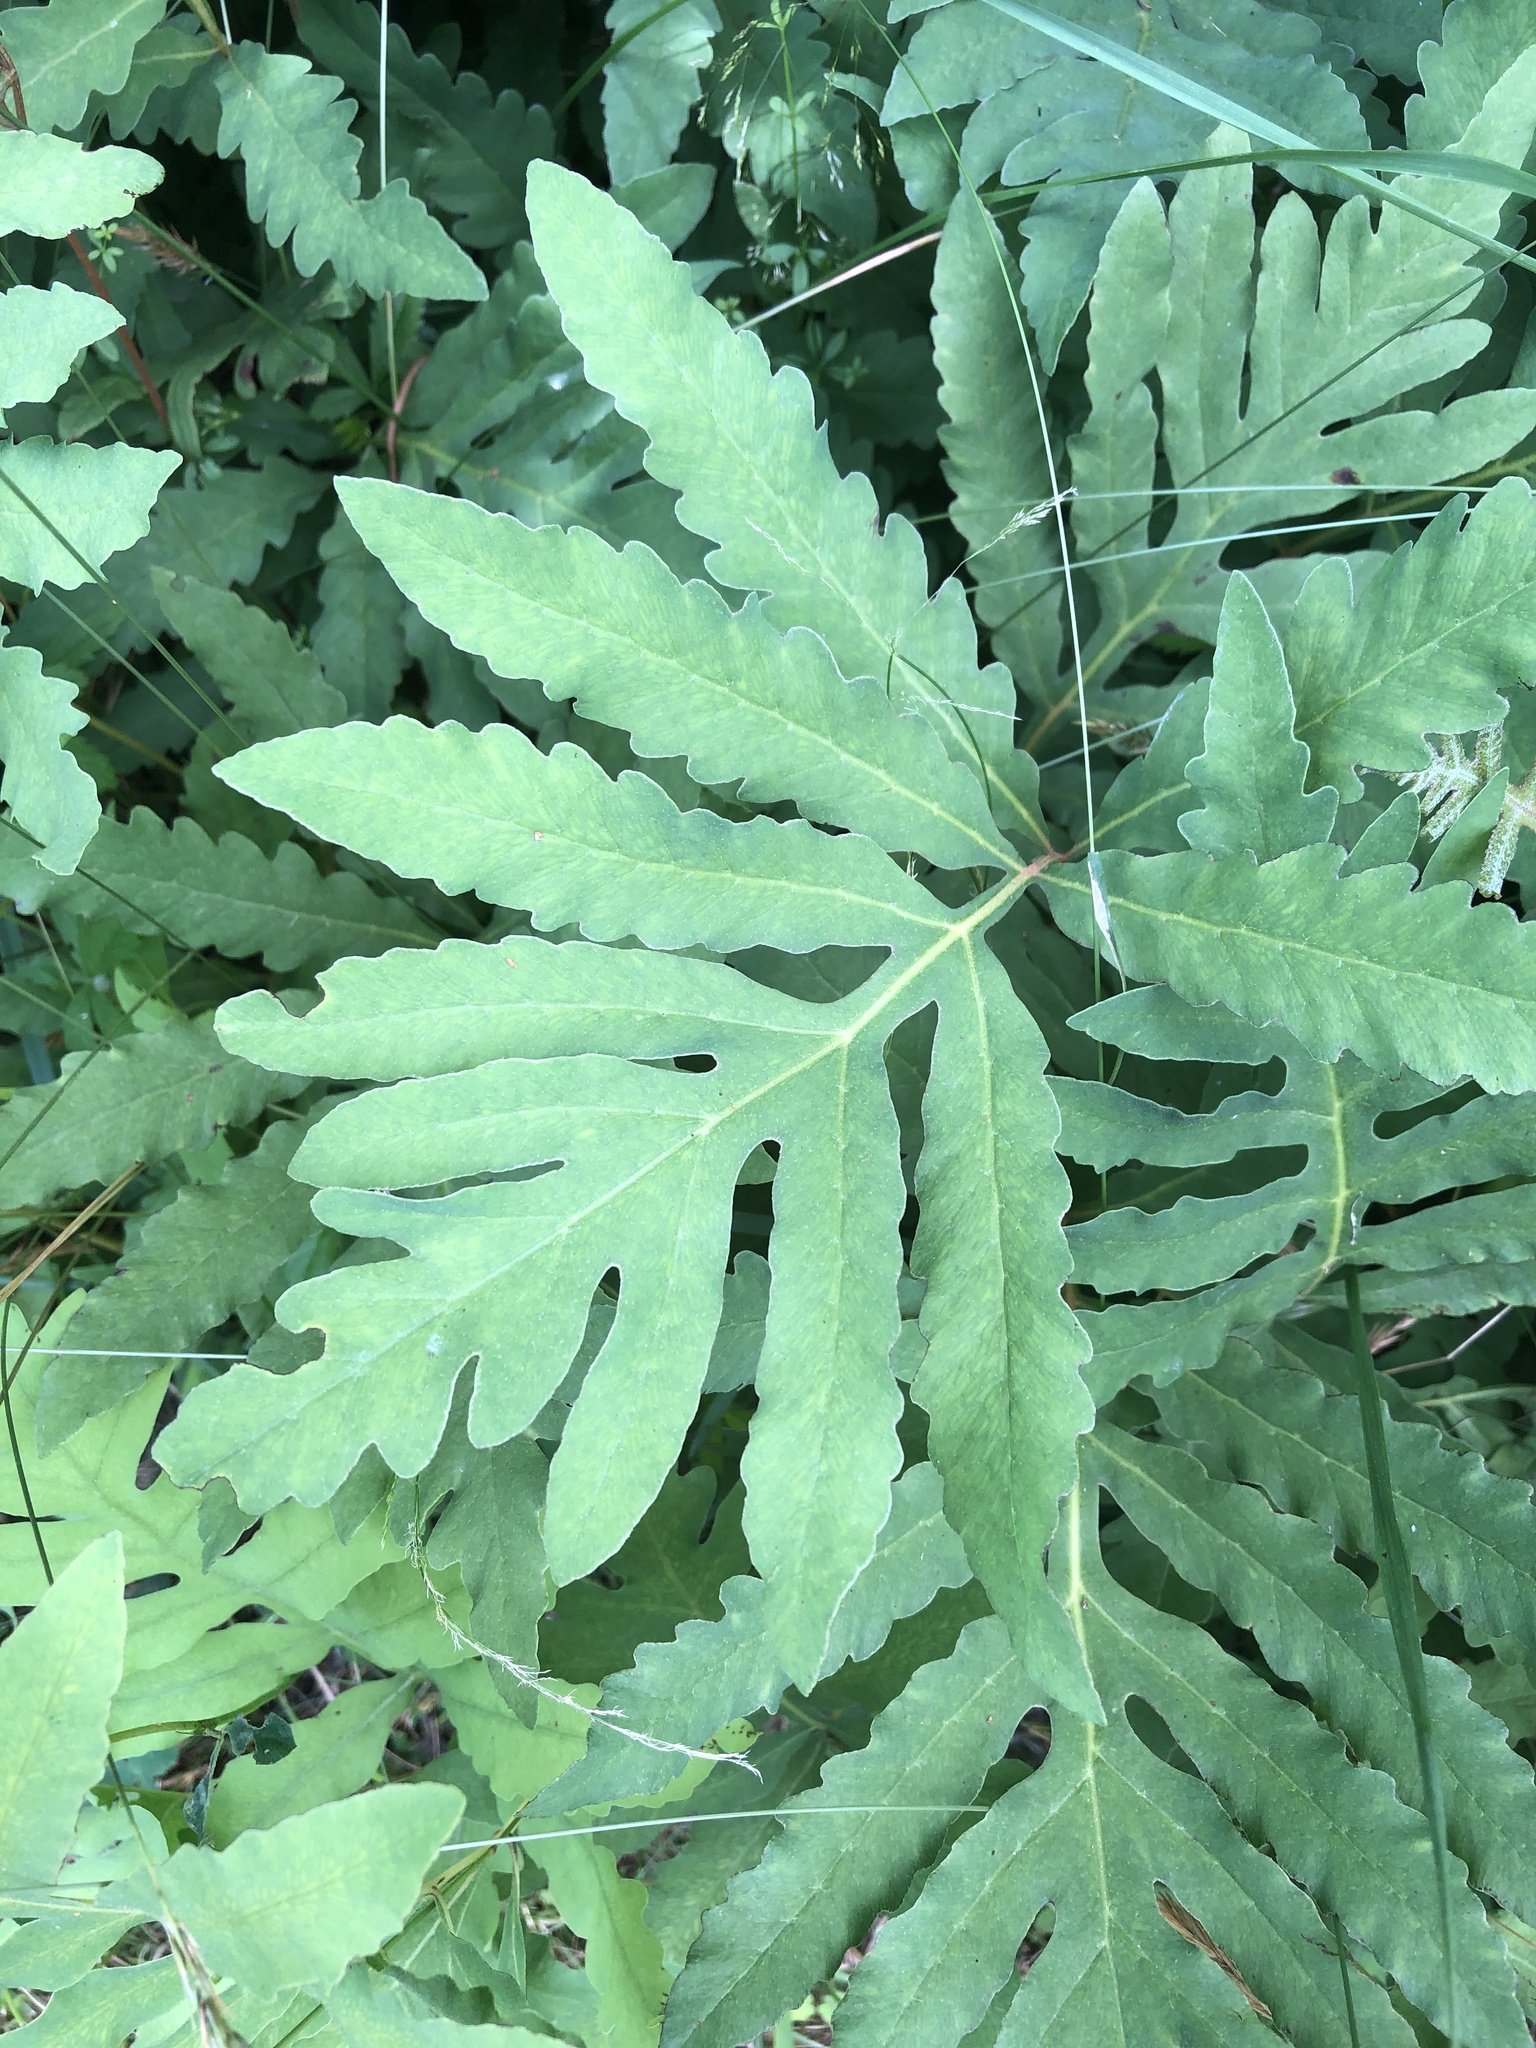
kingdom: Plantae
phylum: Tracheophyta
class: Polypodiopsida
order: Polypodiales
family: Onocleaceae
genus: Onoclea
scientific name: Onoclea sensibilis
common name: Sensitive fern
